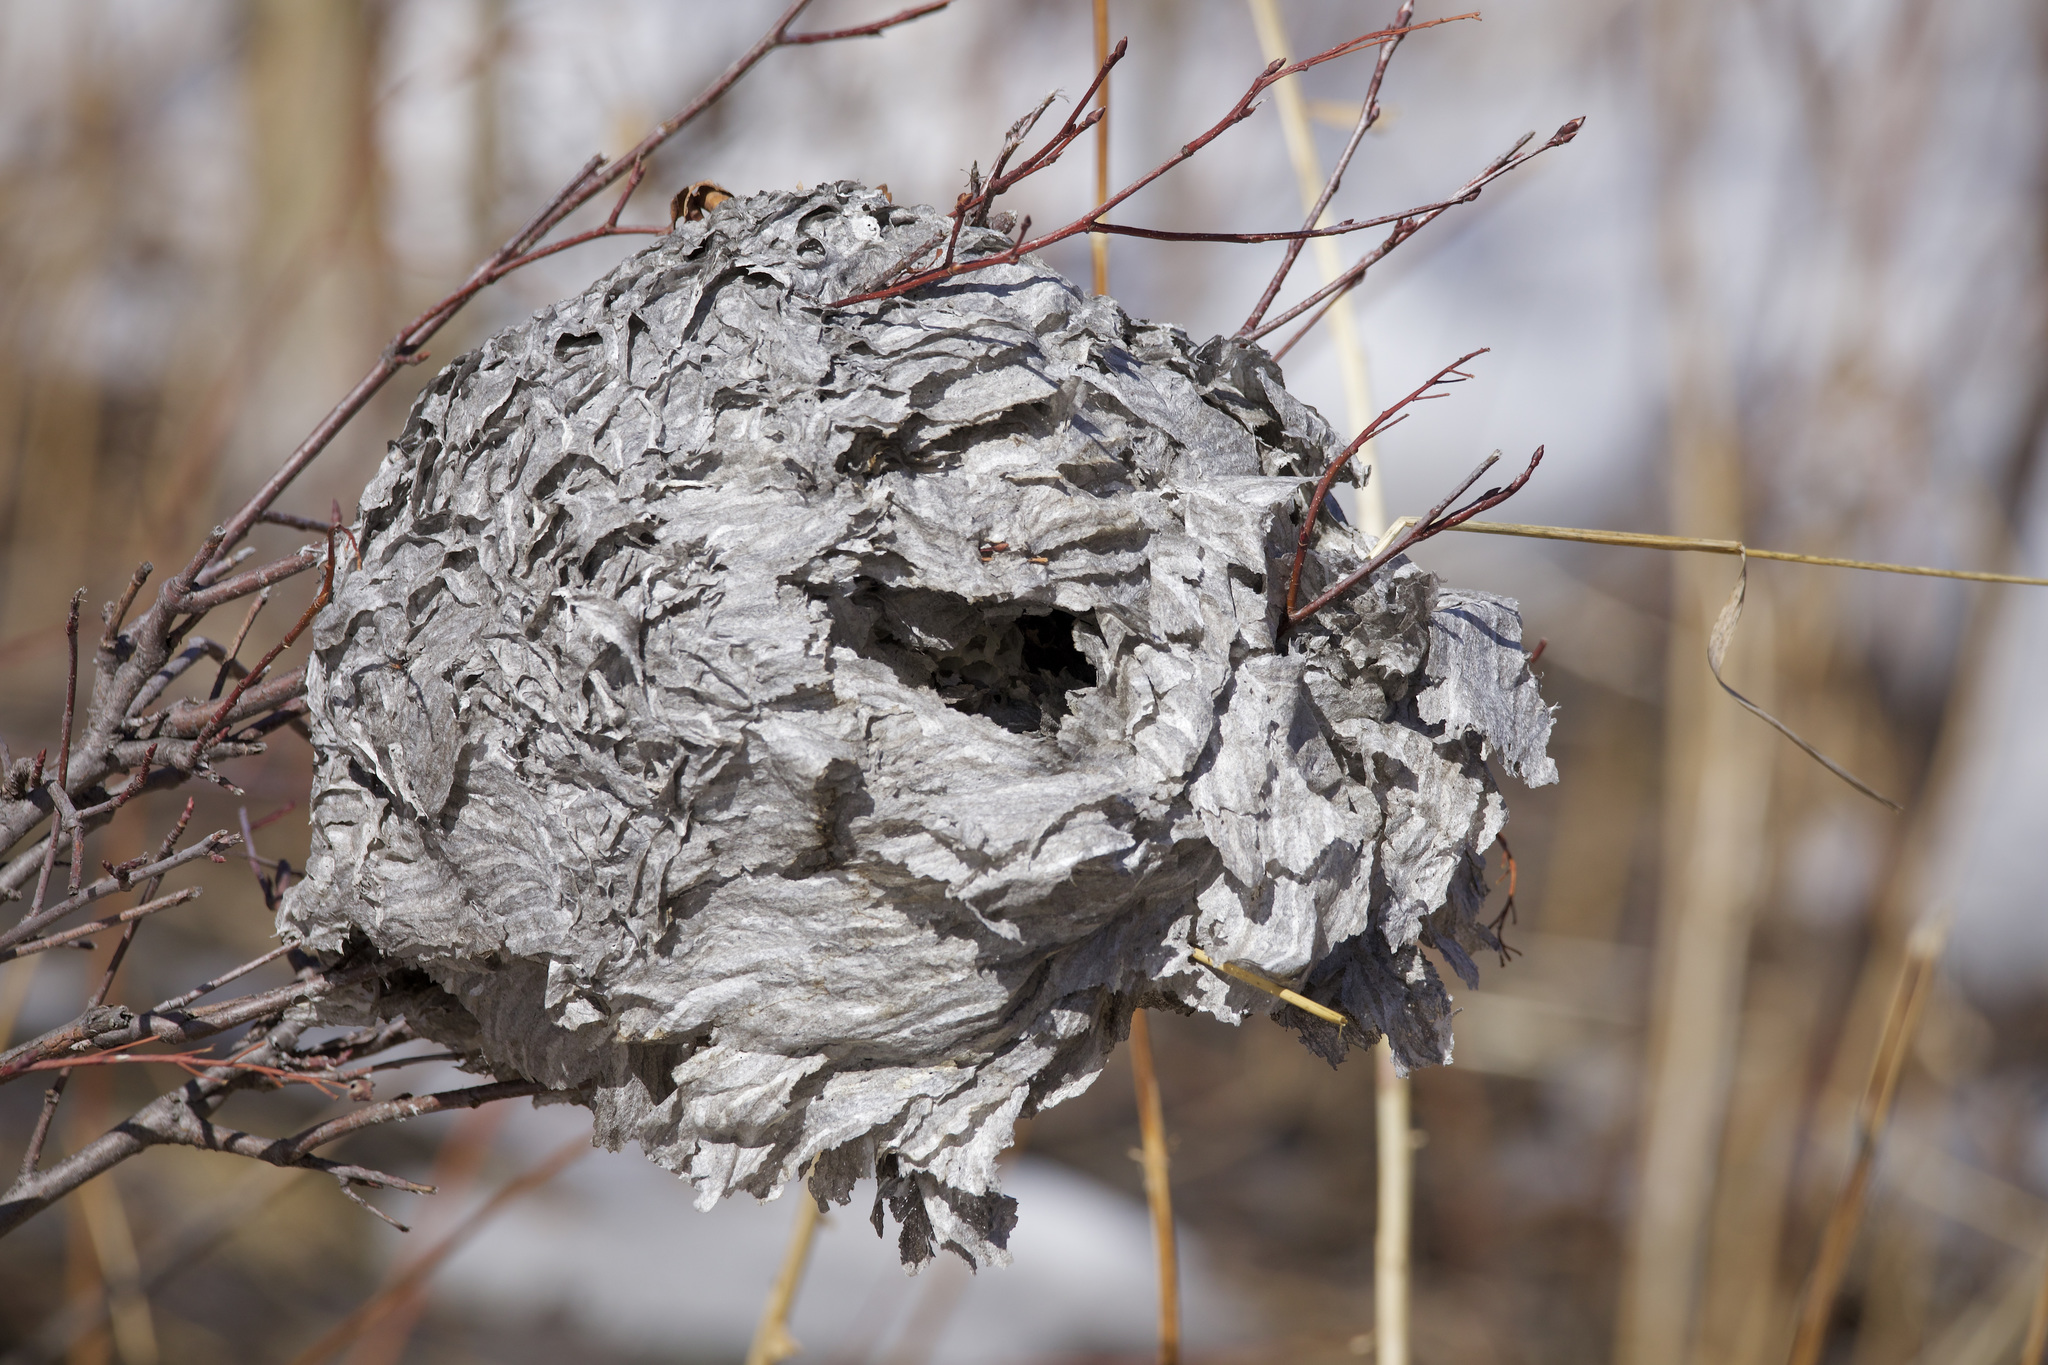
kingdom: Animalia
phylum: Arthropoda
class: Insecta
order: Hymenoptera
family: Vespidae
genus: Dolichovespula
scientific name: Dolichovespula
